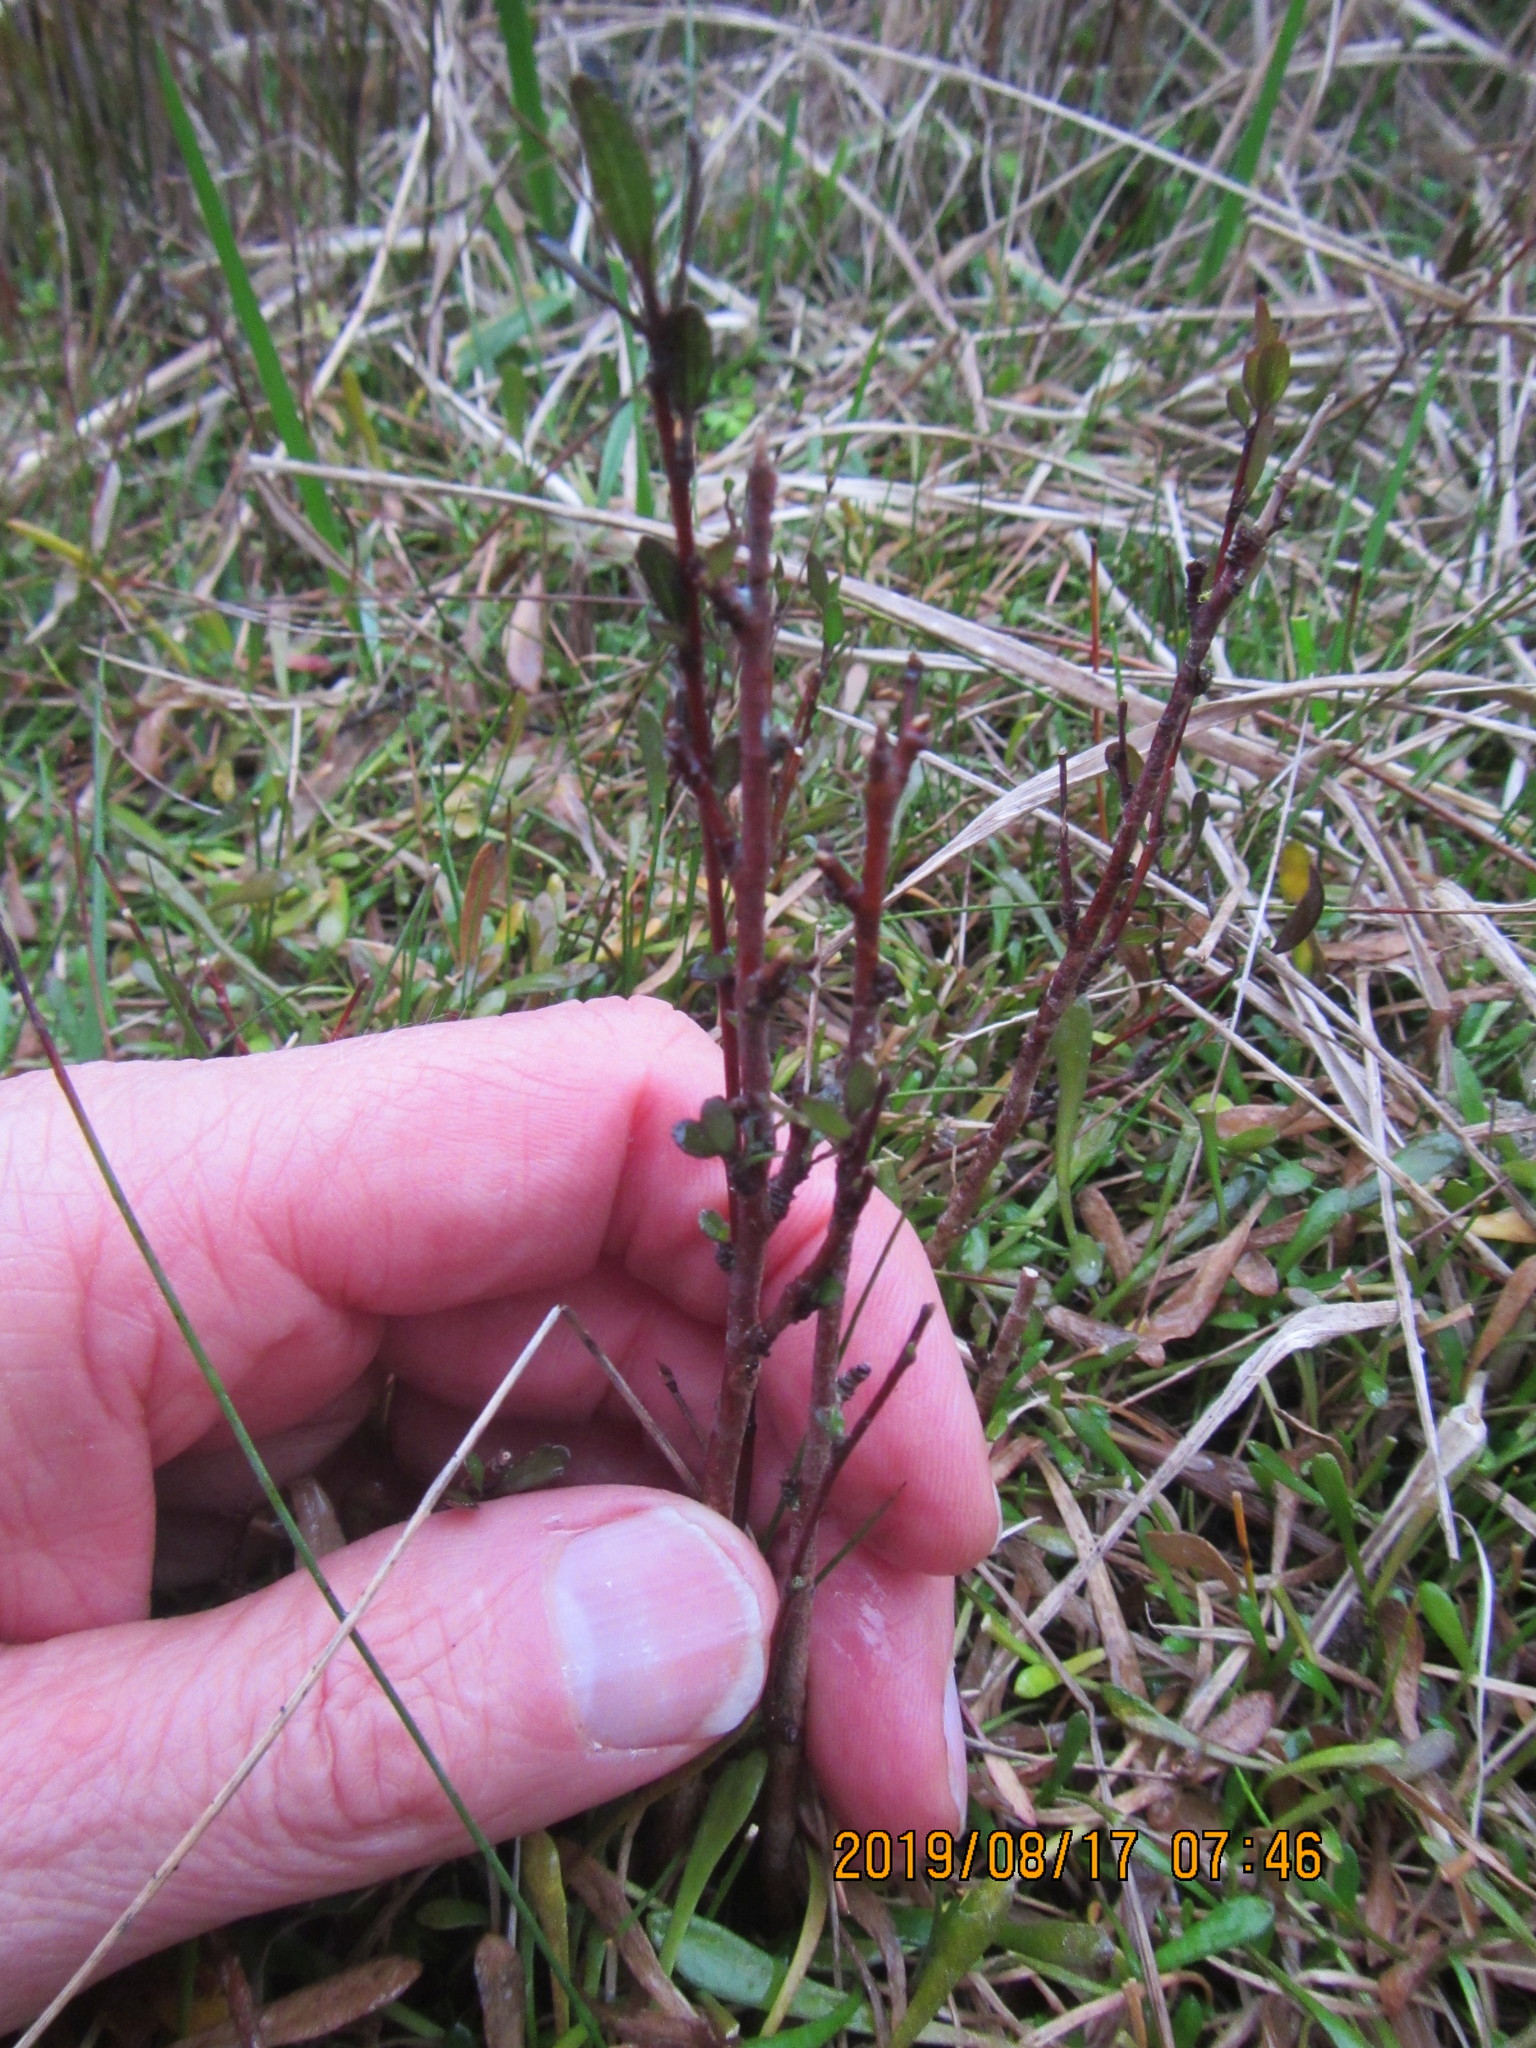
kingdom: Plantae
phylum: Tracheophyta
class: Magnoliopsida
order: Malvales
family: Malvaceae
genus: Plagianthus
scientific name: Plagianthus divaricatus
